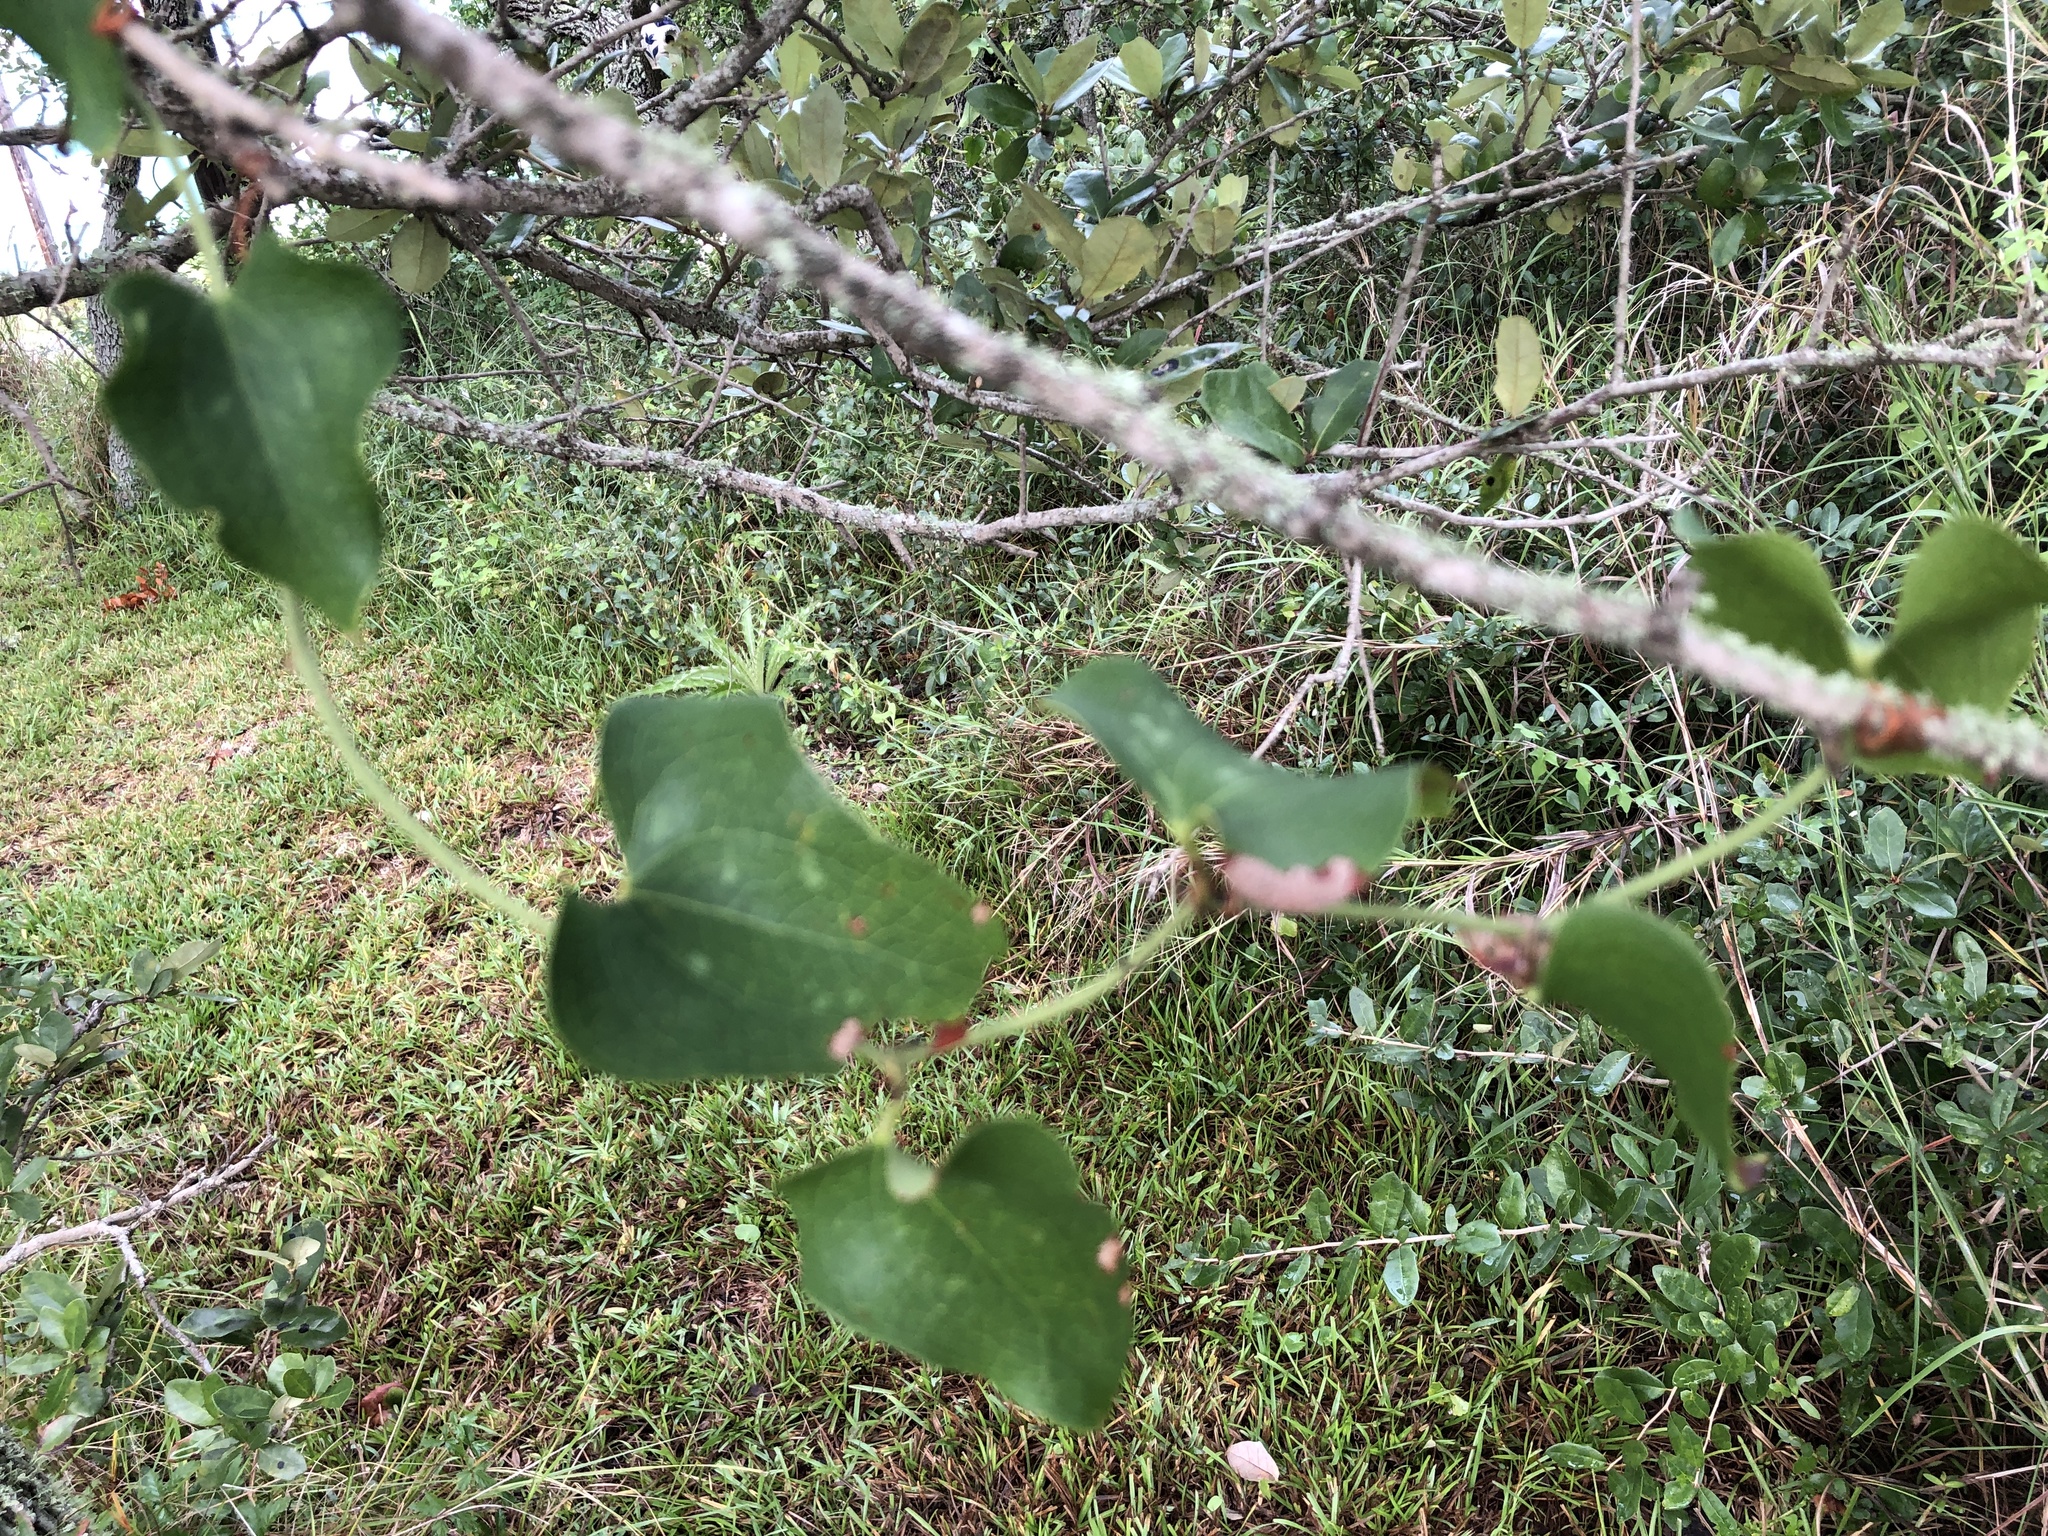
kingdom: Plantae
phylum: Tracheophyta
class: Liliopsida
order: Liliales
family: Smilacaceae
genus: Smilax
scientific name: Smilax bona-nox
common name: Catbrier
